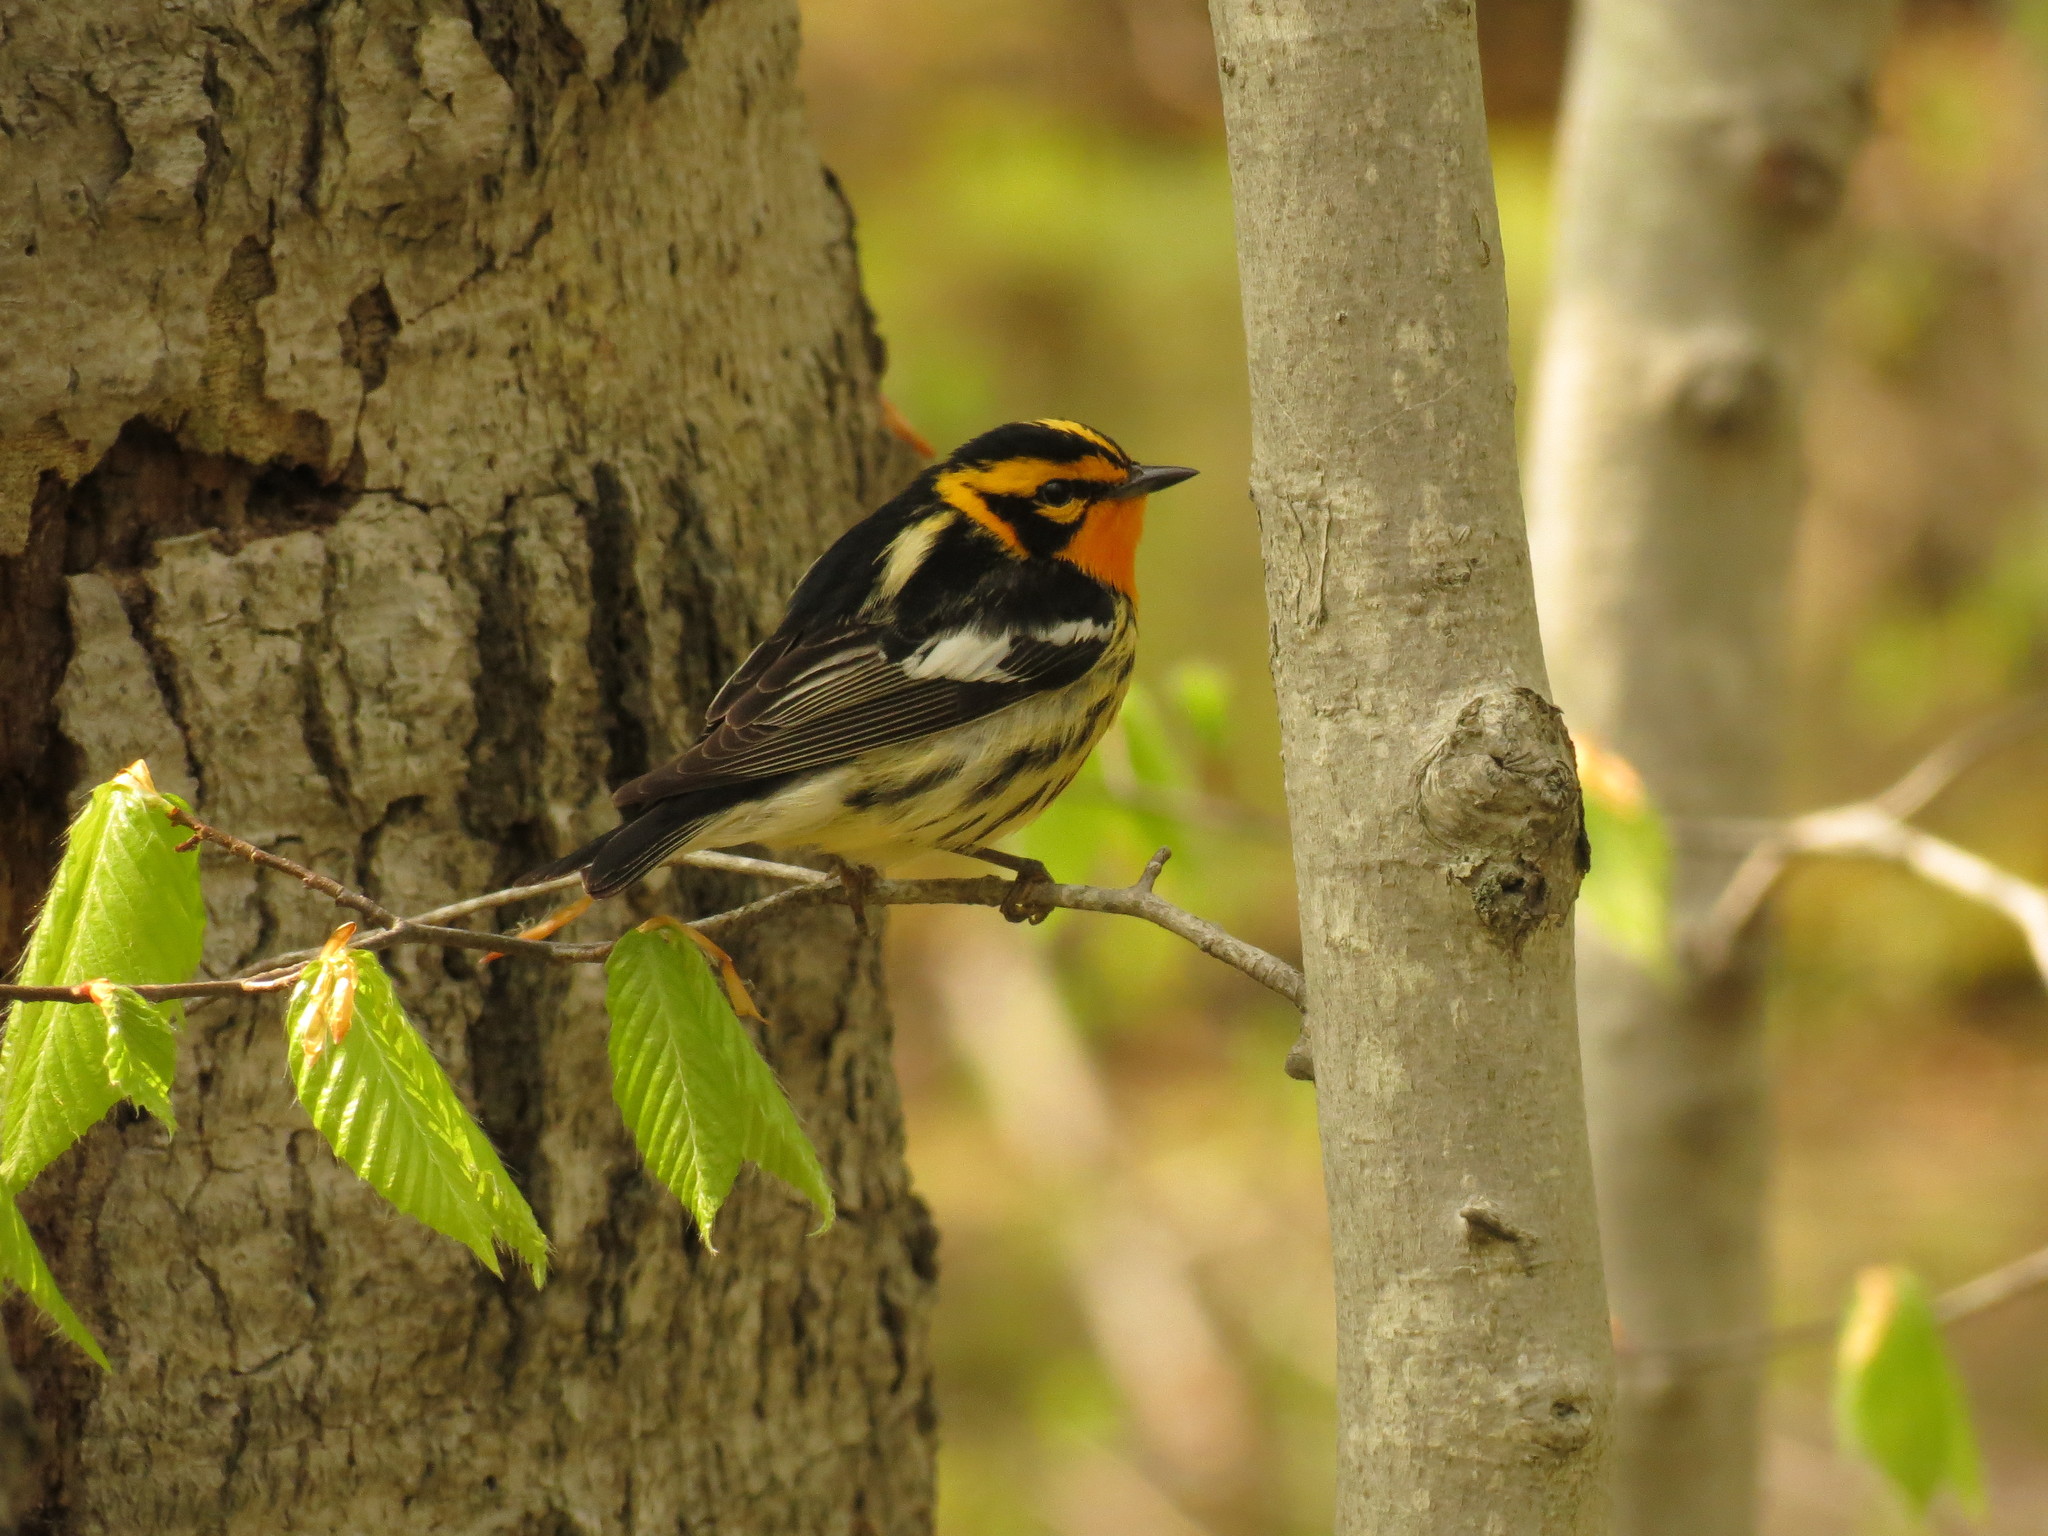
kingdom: Animalia
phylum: Chordata
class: Aves
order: Passeriformes
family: Parulidae
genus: Setophaga
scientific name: Setophaga fusca
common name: Blackburnian warbler
